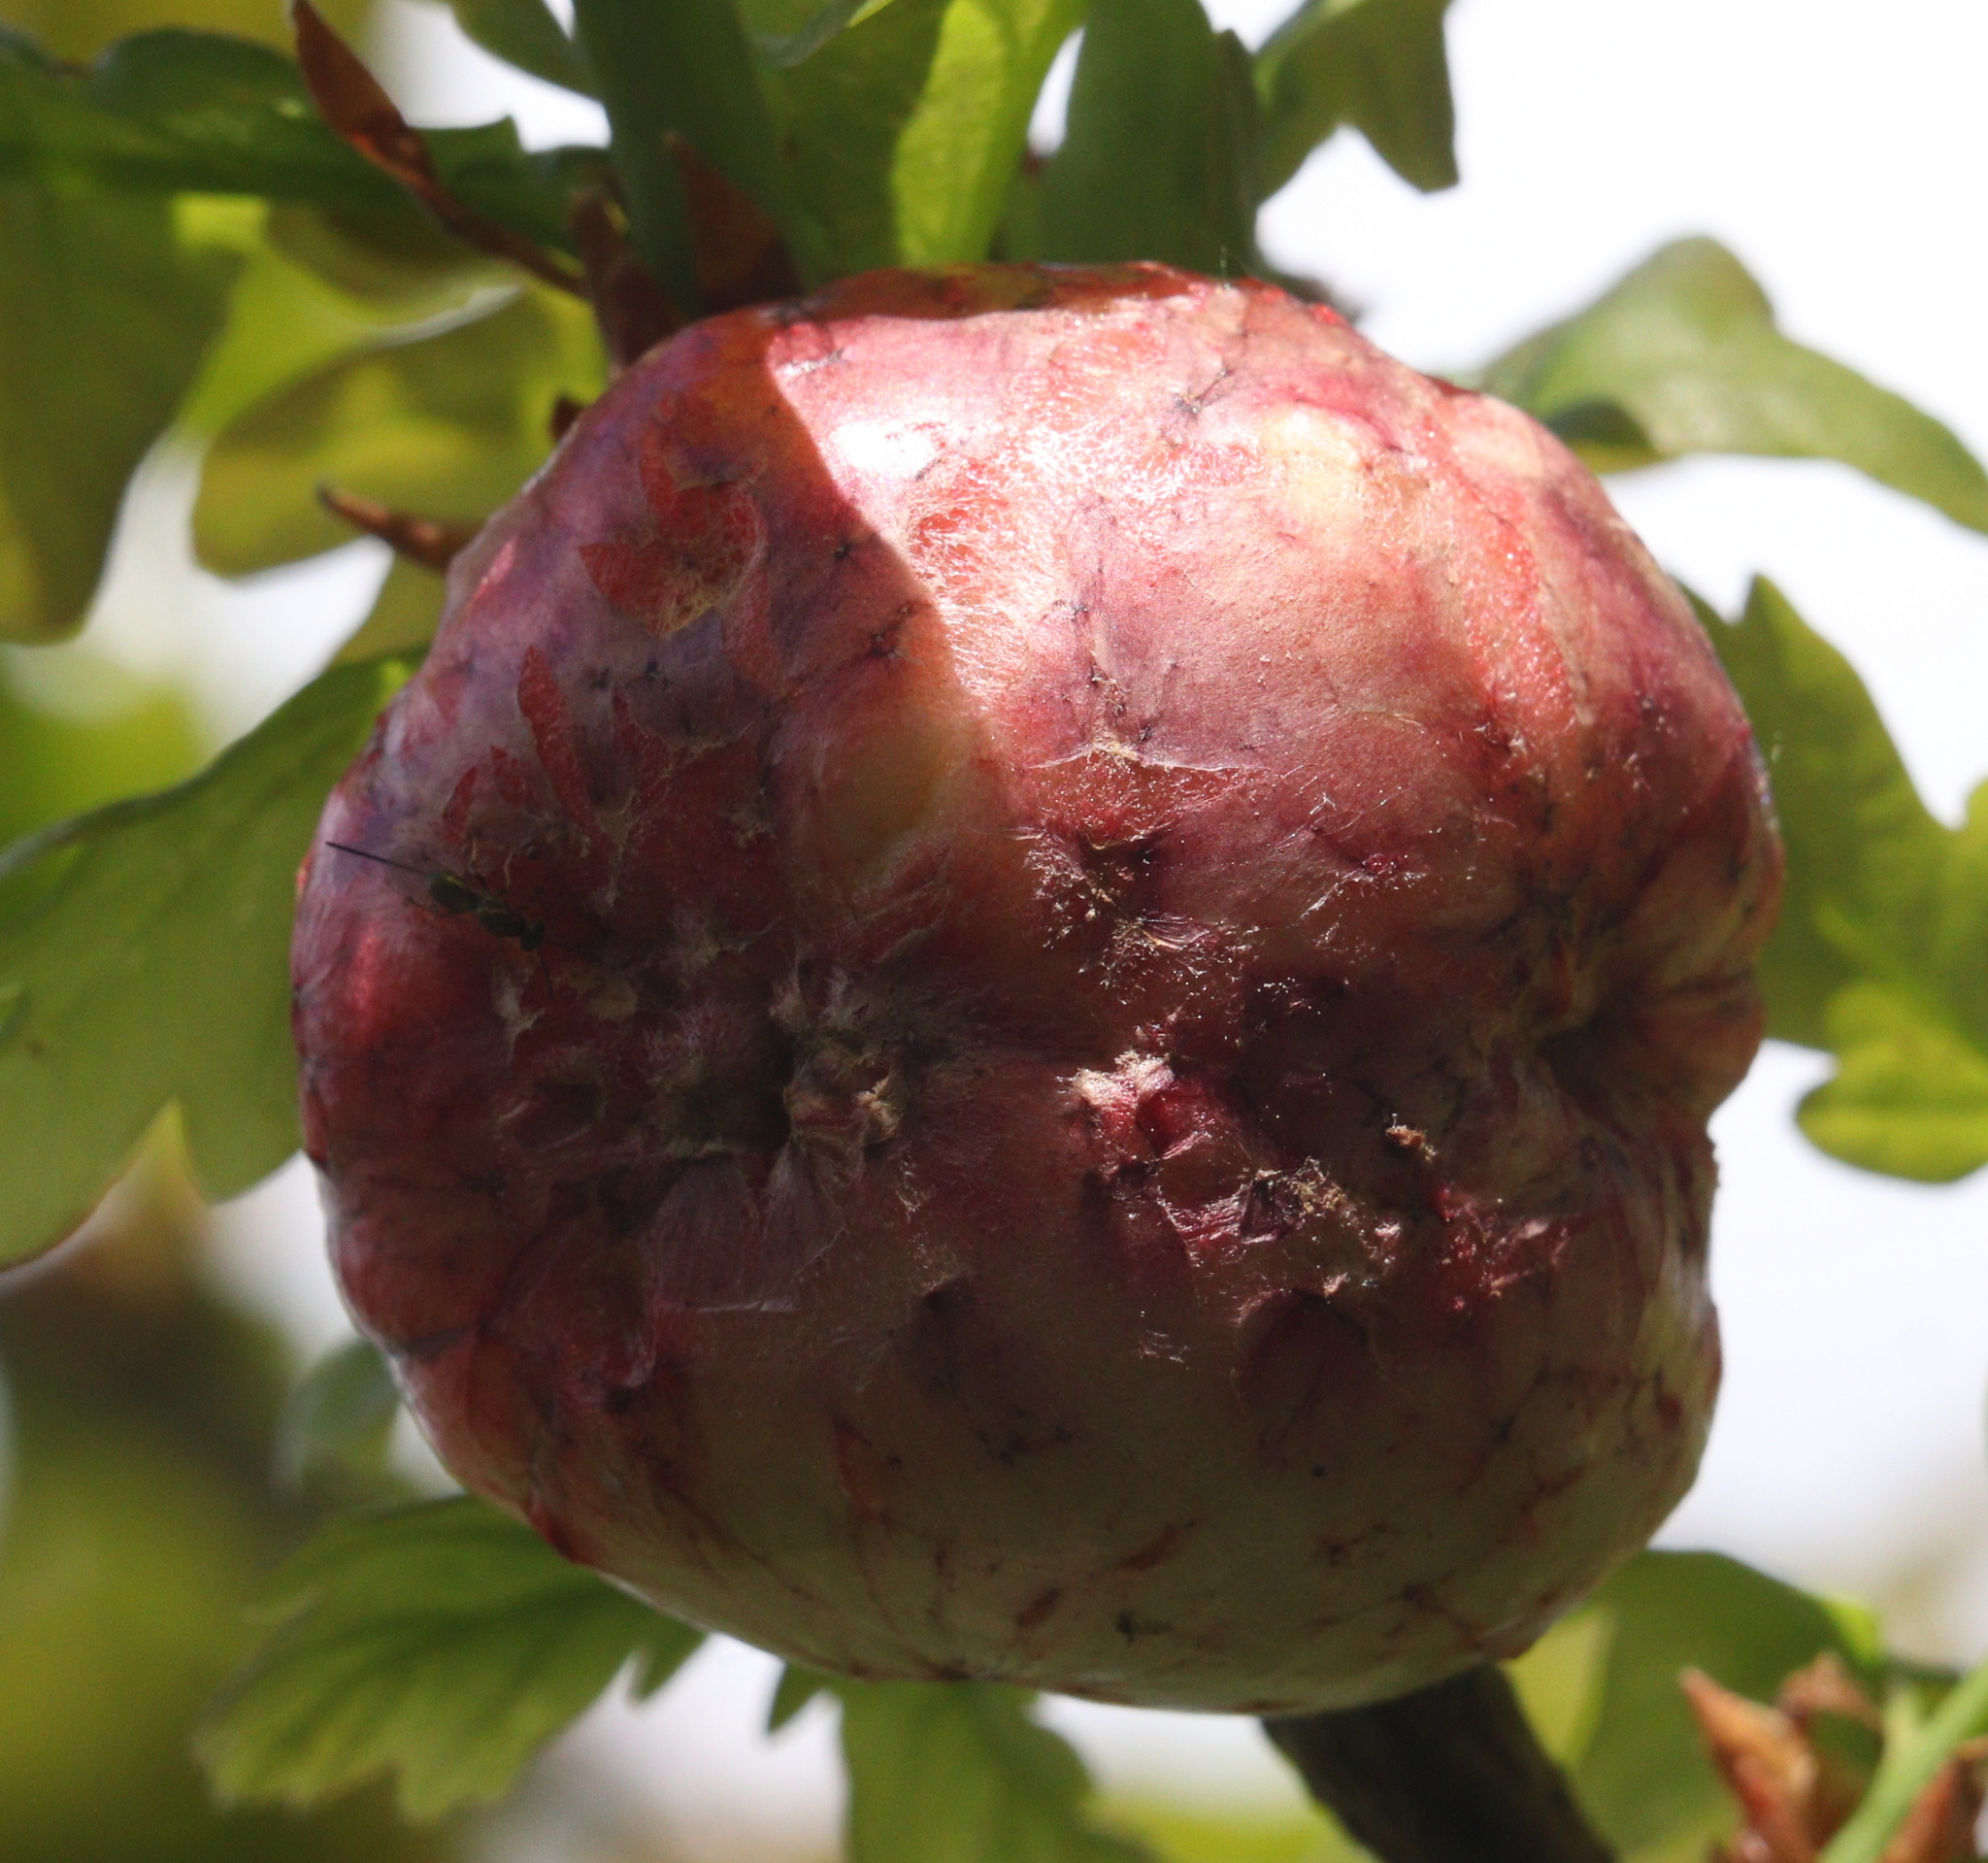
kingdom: Animalia
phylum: Arthropoda
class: Insecta
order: Hymenoptera
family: Cynipidae
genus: Biorhiza
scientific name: Biorhiza pallida
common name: Oak apple
